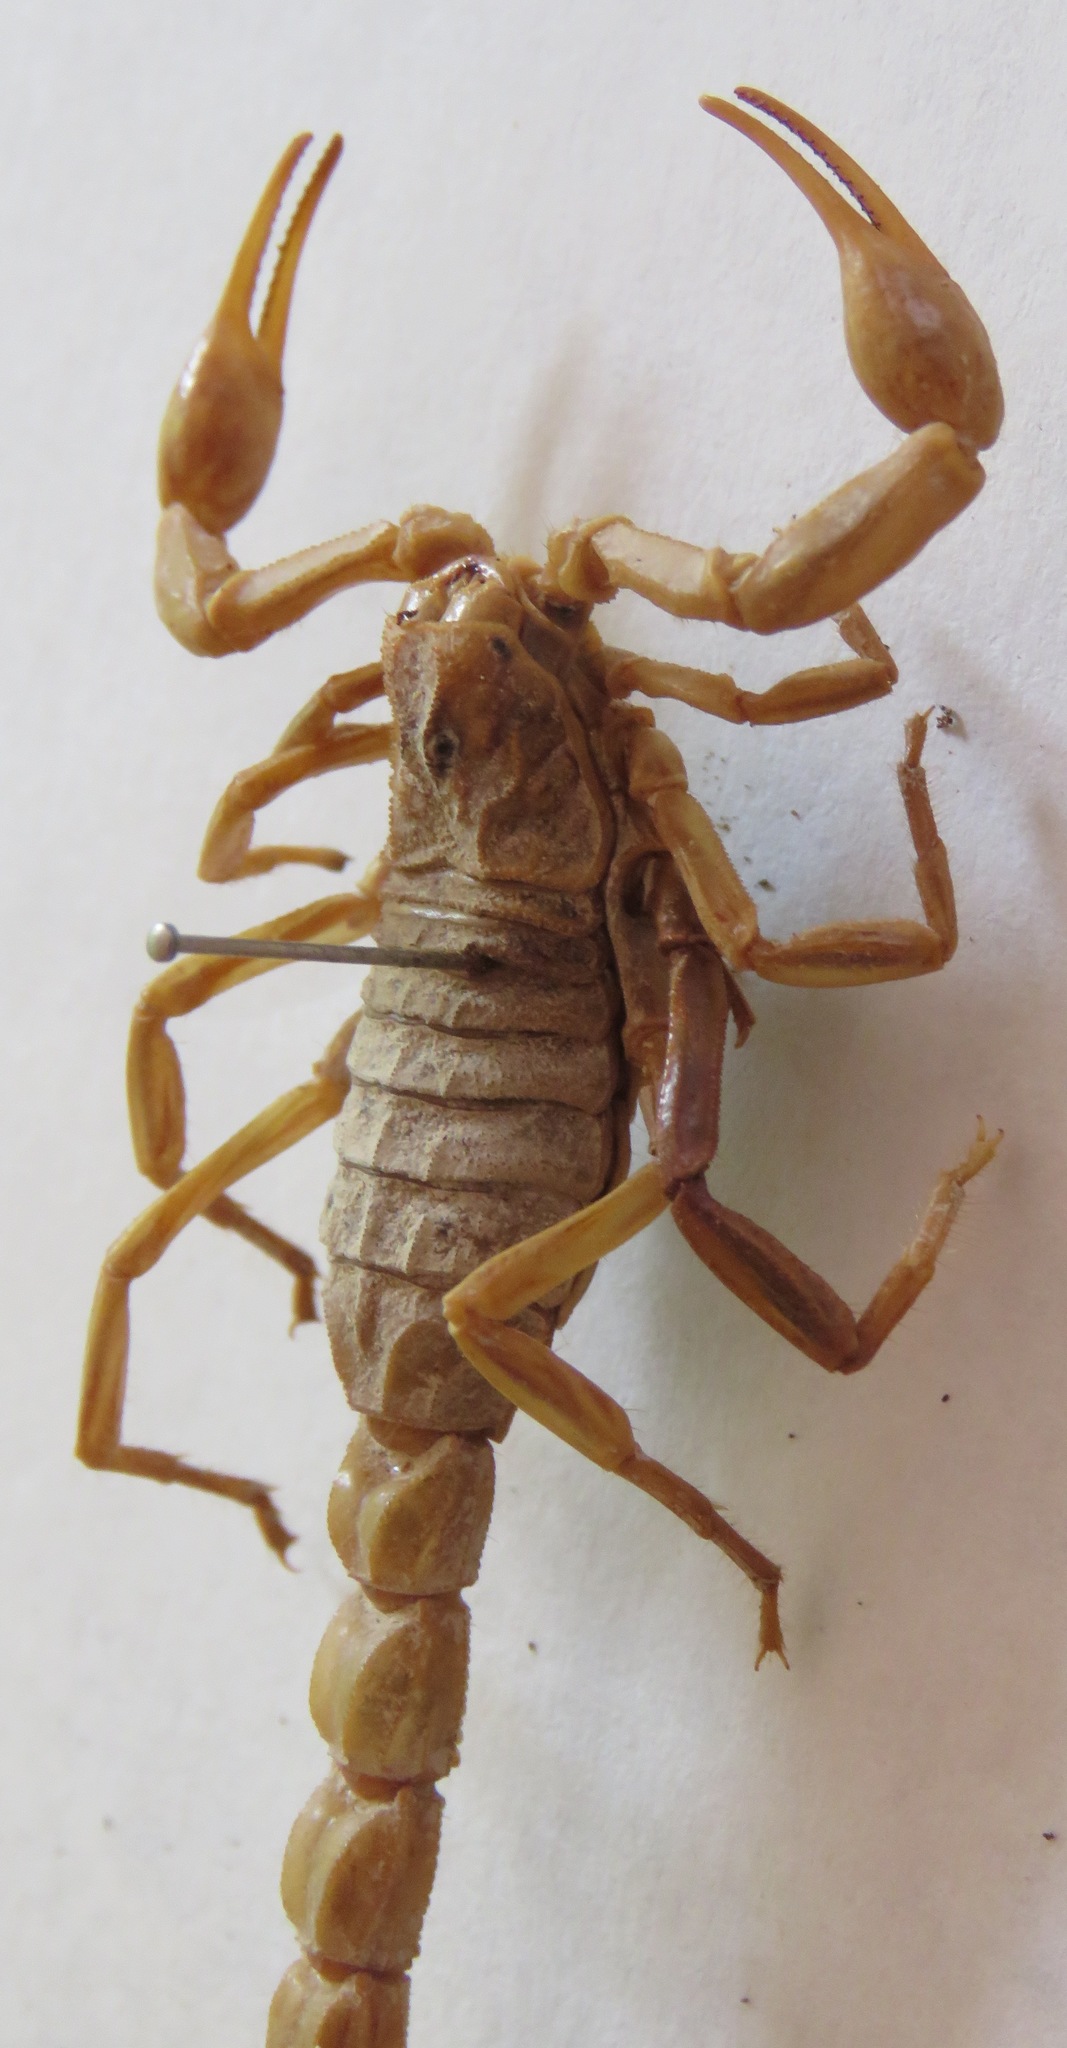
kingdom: Animalia
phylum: Arthropoda
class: Arachnida
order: Scorpiones
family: Buthidae
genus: Buthus
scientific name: Buthus occitanus
